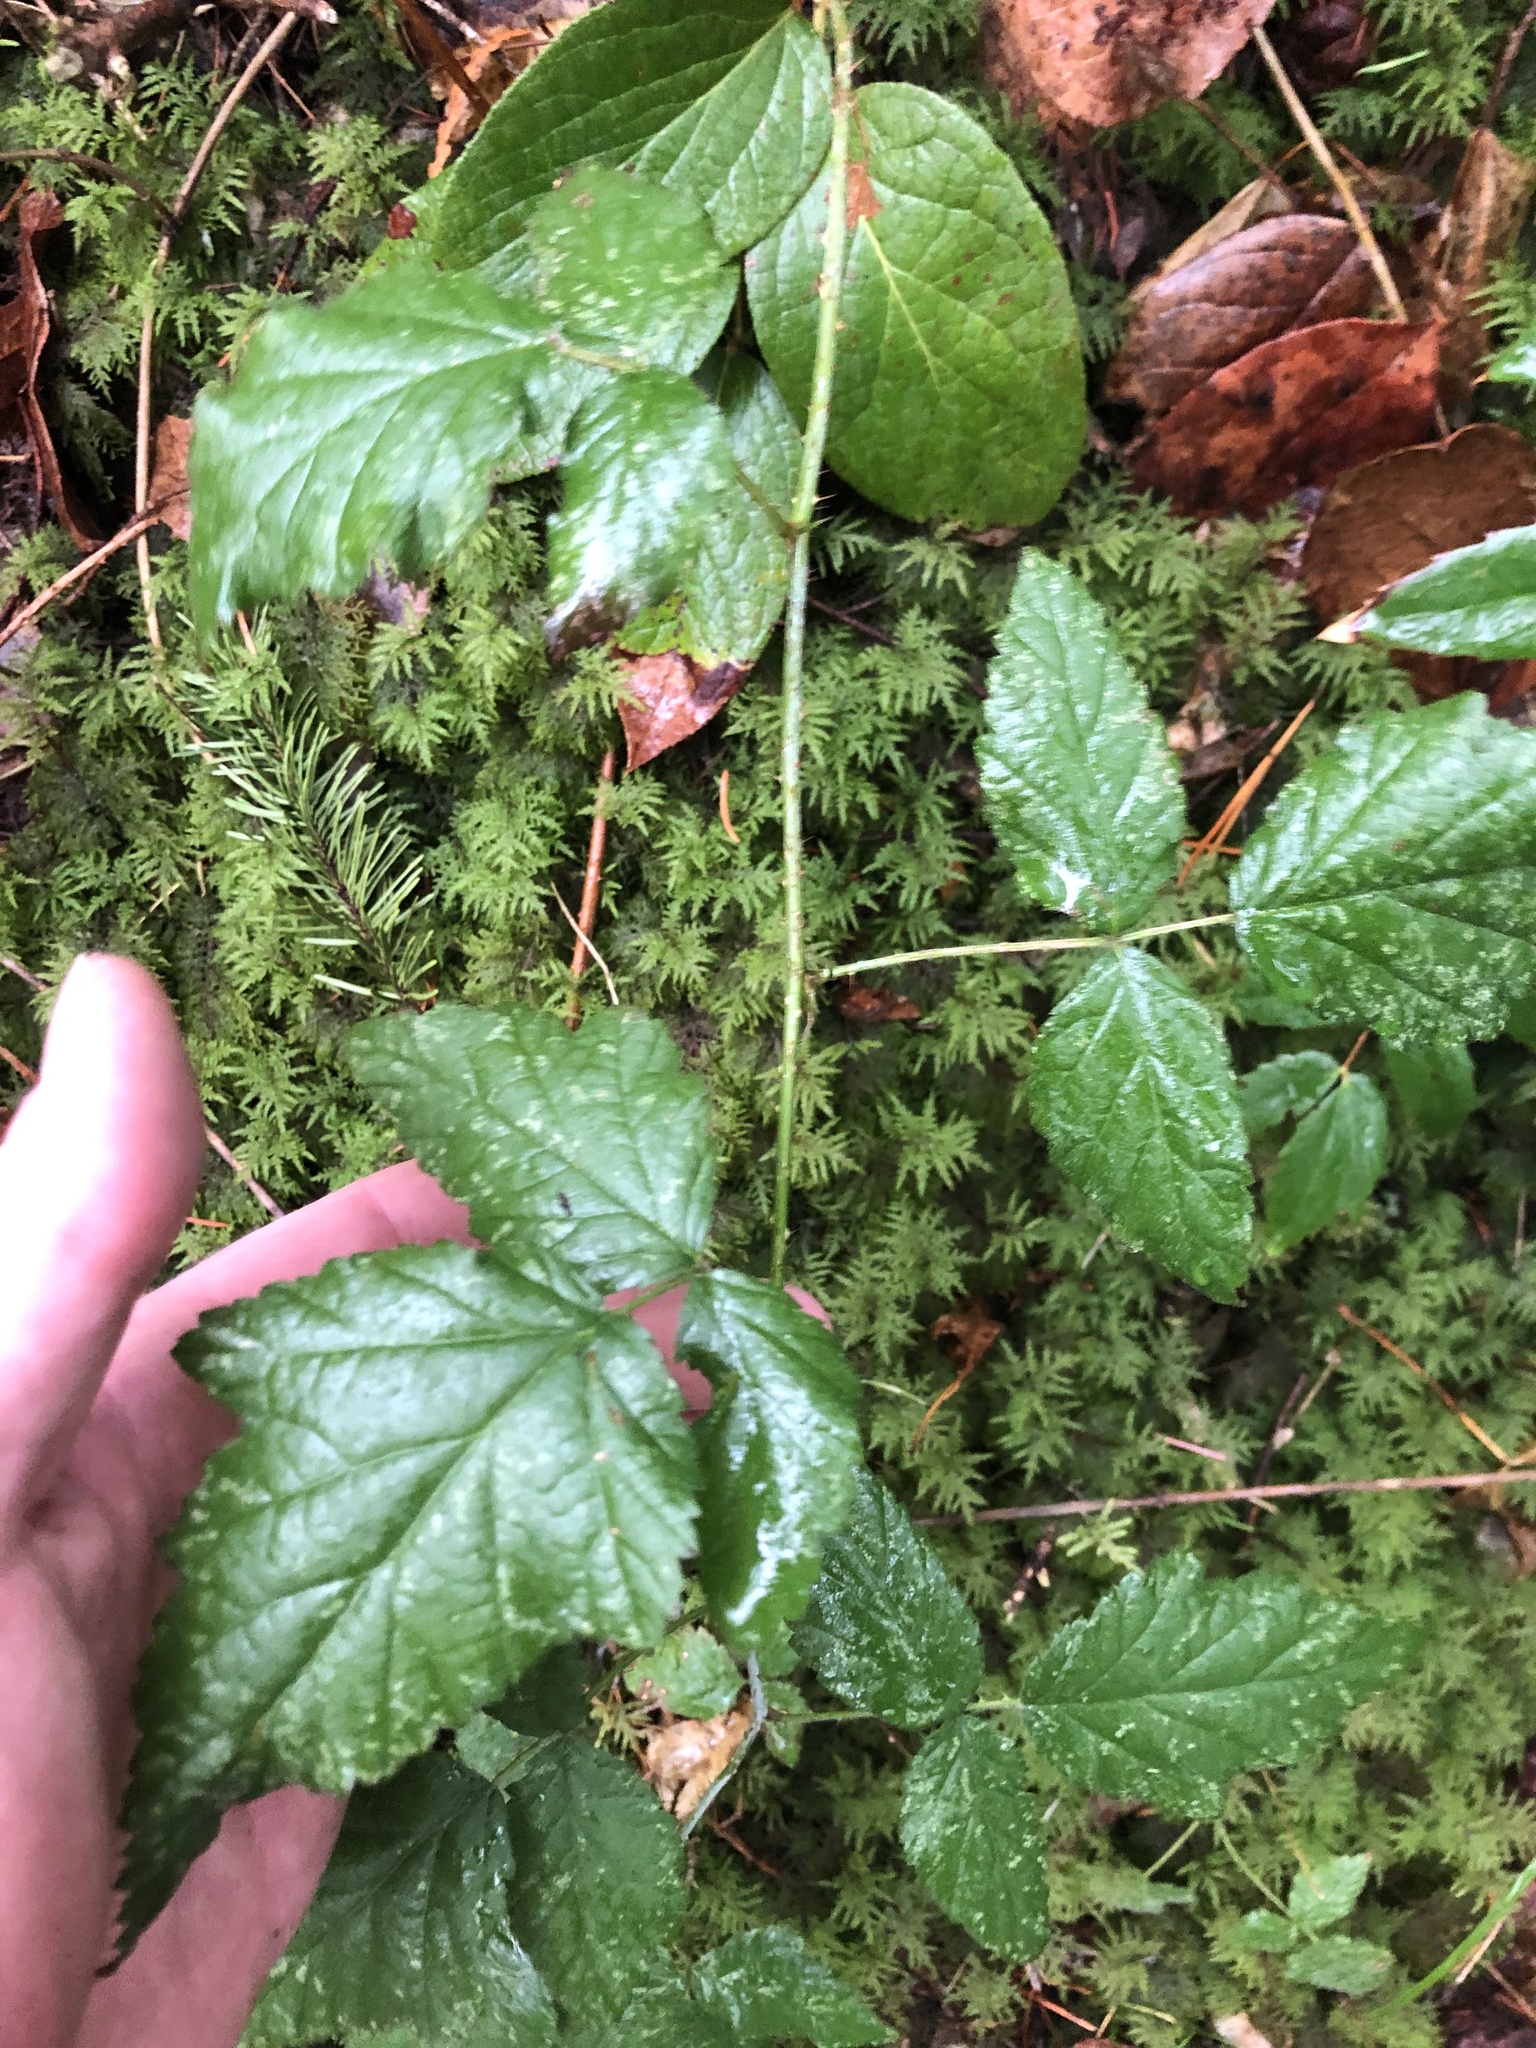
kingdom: Plantae
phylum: Tracheophyta
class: Magnoliopsida
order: Rosales
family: Rosaceae
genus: Rubus
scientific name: Rubus ursinus
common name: Pacific blackberry
